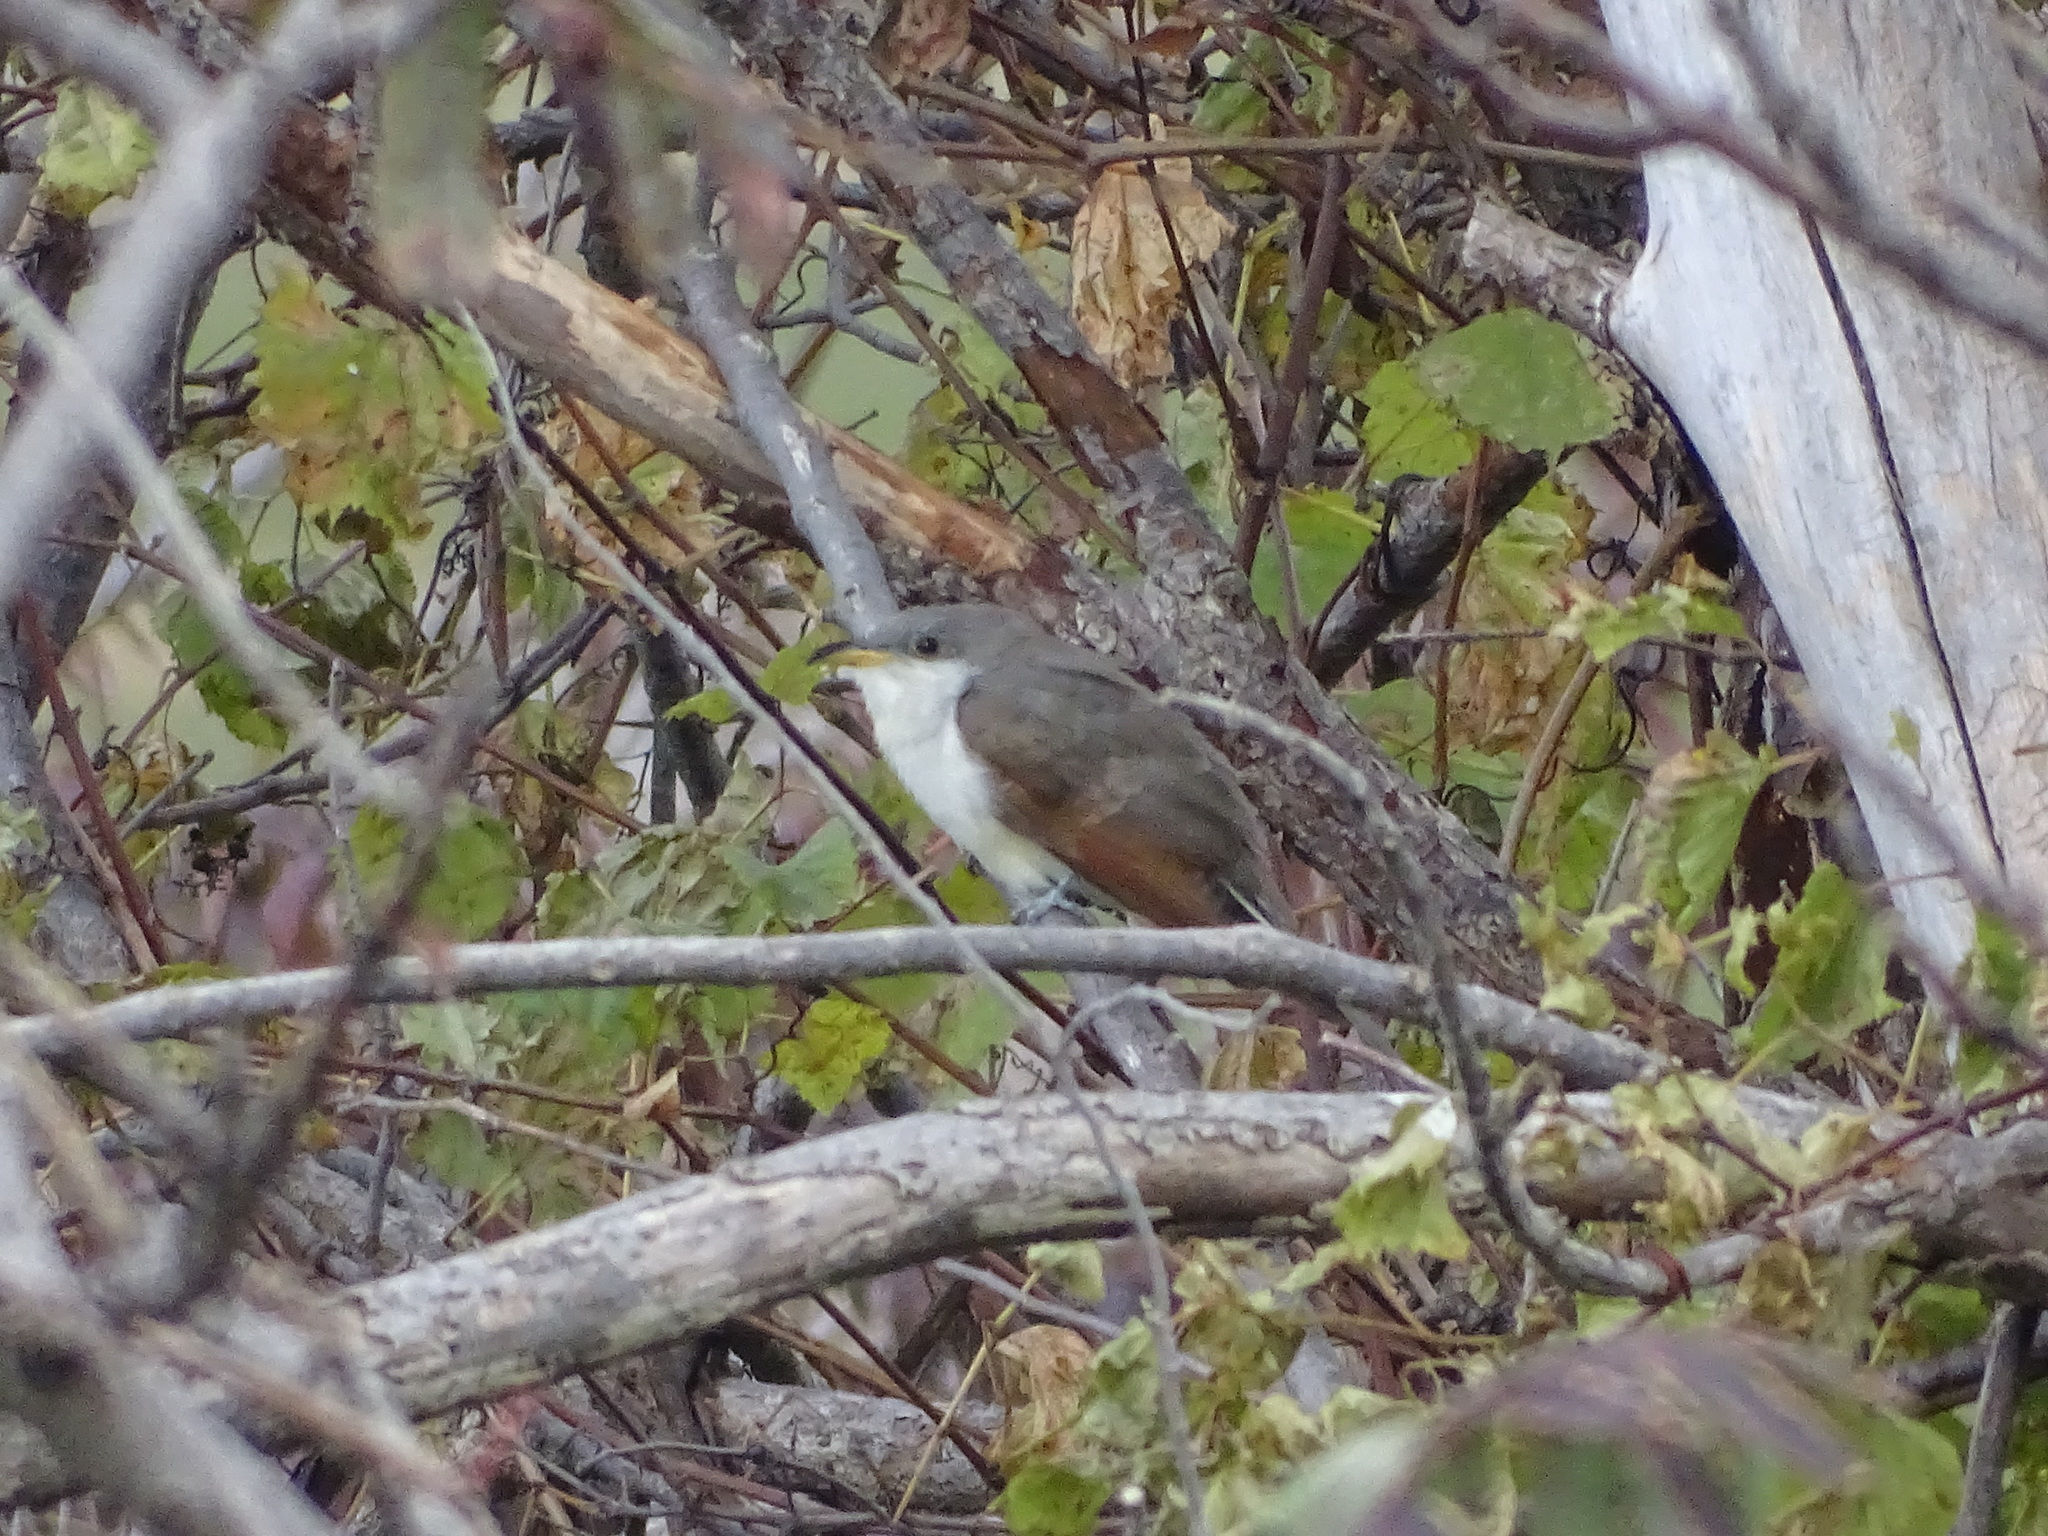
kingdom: Animalia
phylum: Chordata
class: Aves
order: Cuculiformes
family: Cuculidae
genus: Coccyzus
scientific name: Coccyzus americanus
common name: Yellow-billed cuckoo
